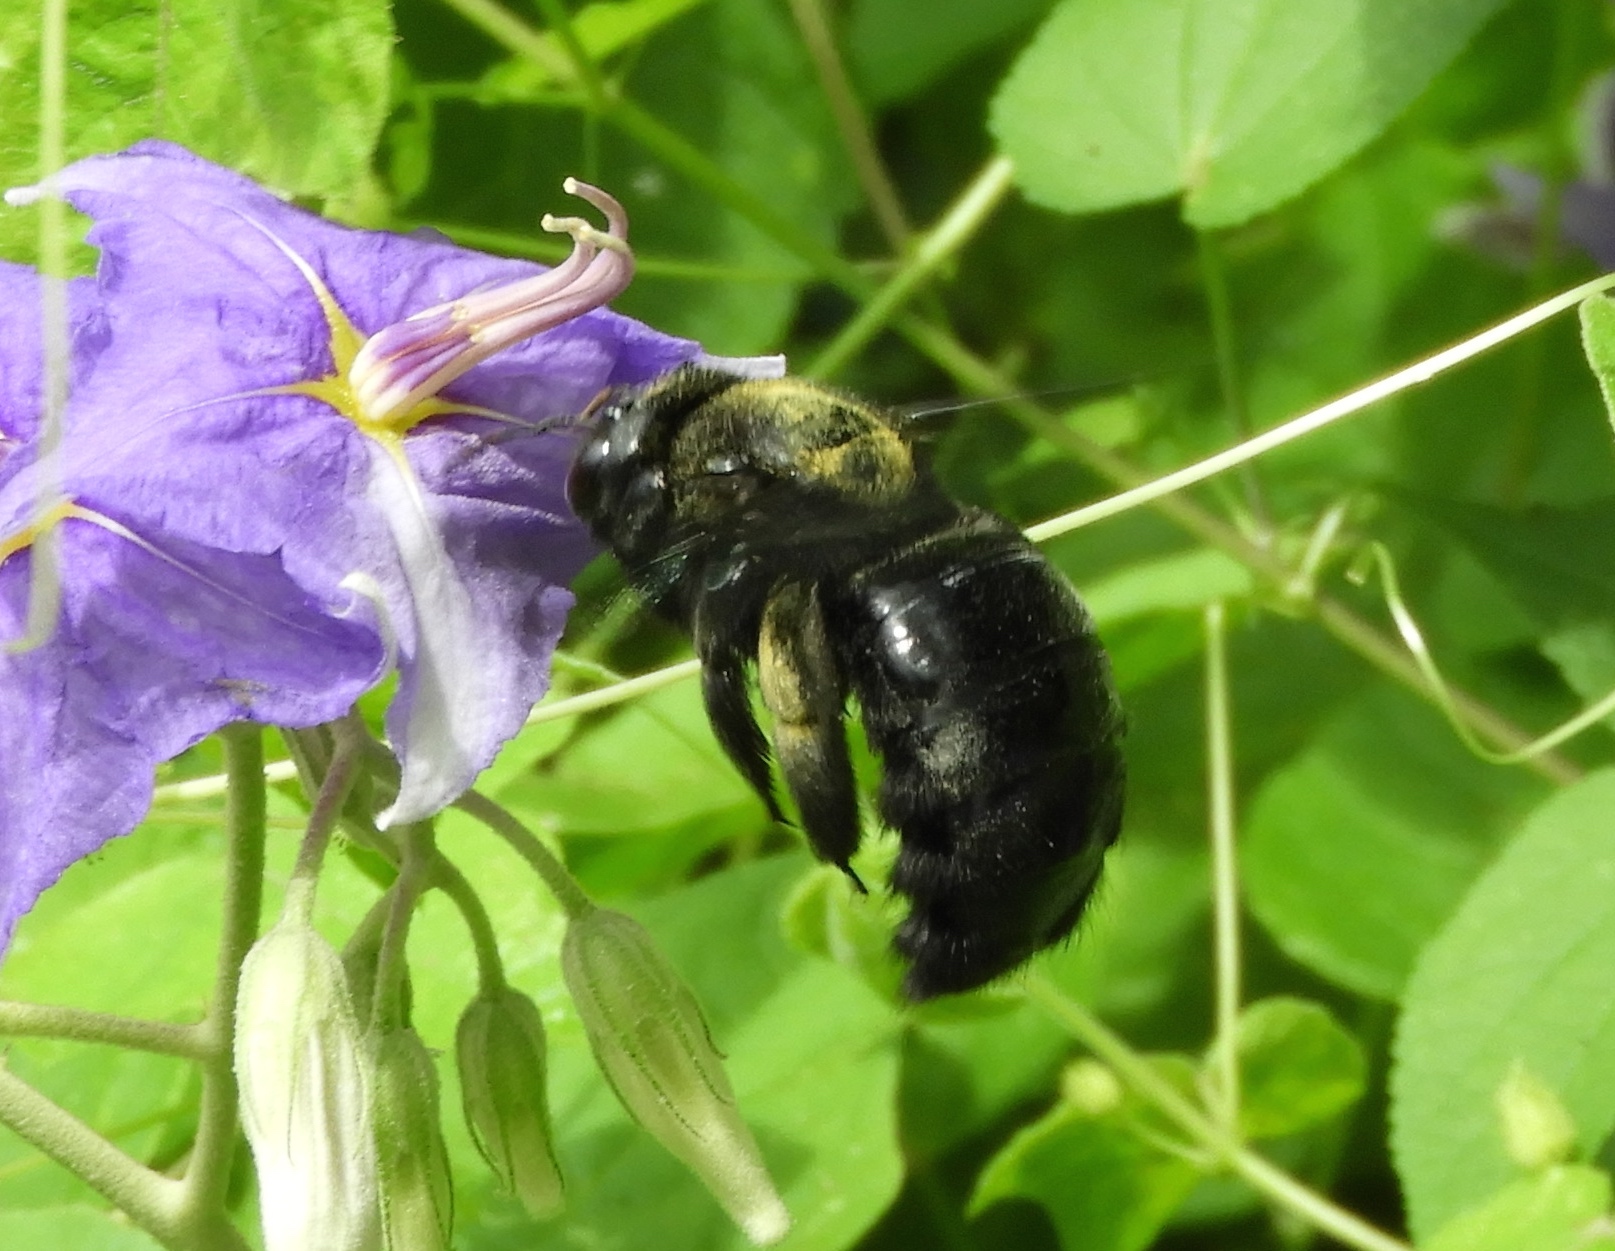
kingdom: Animalia
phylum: Arthropoda
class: Insecta
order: Hymenoptera
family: Apidae
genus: Xylocopa
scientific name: Xylocopa fimbriata
